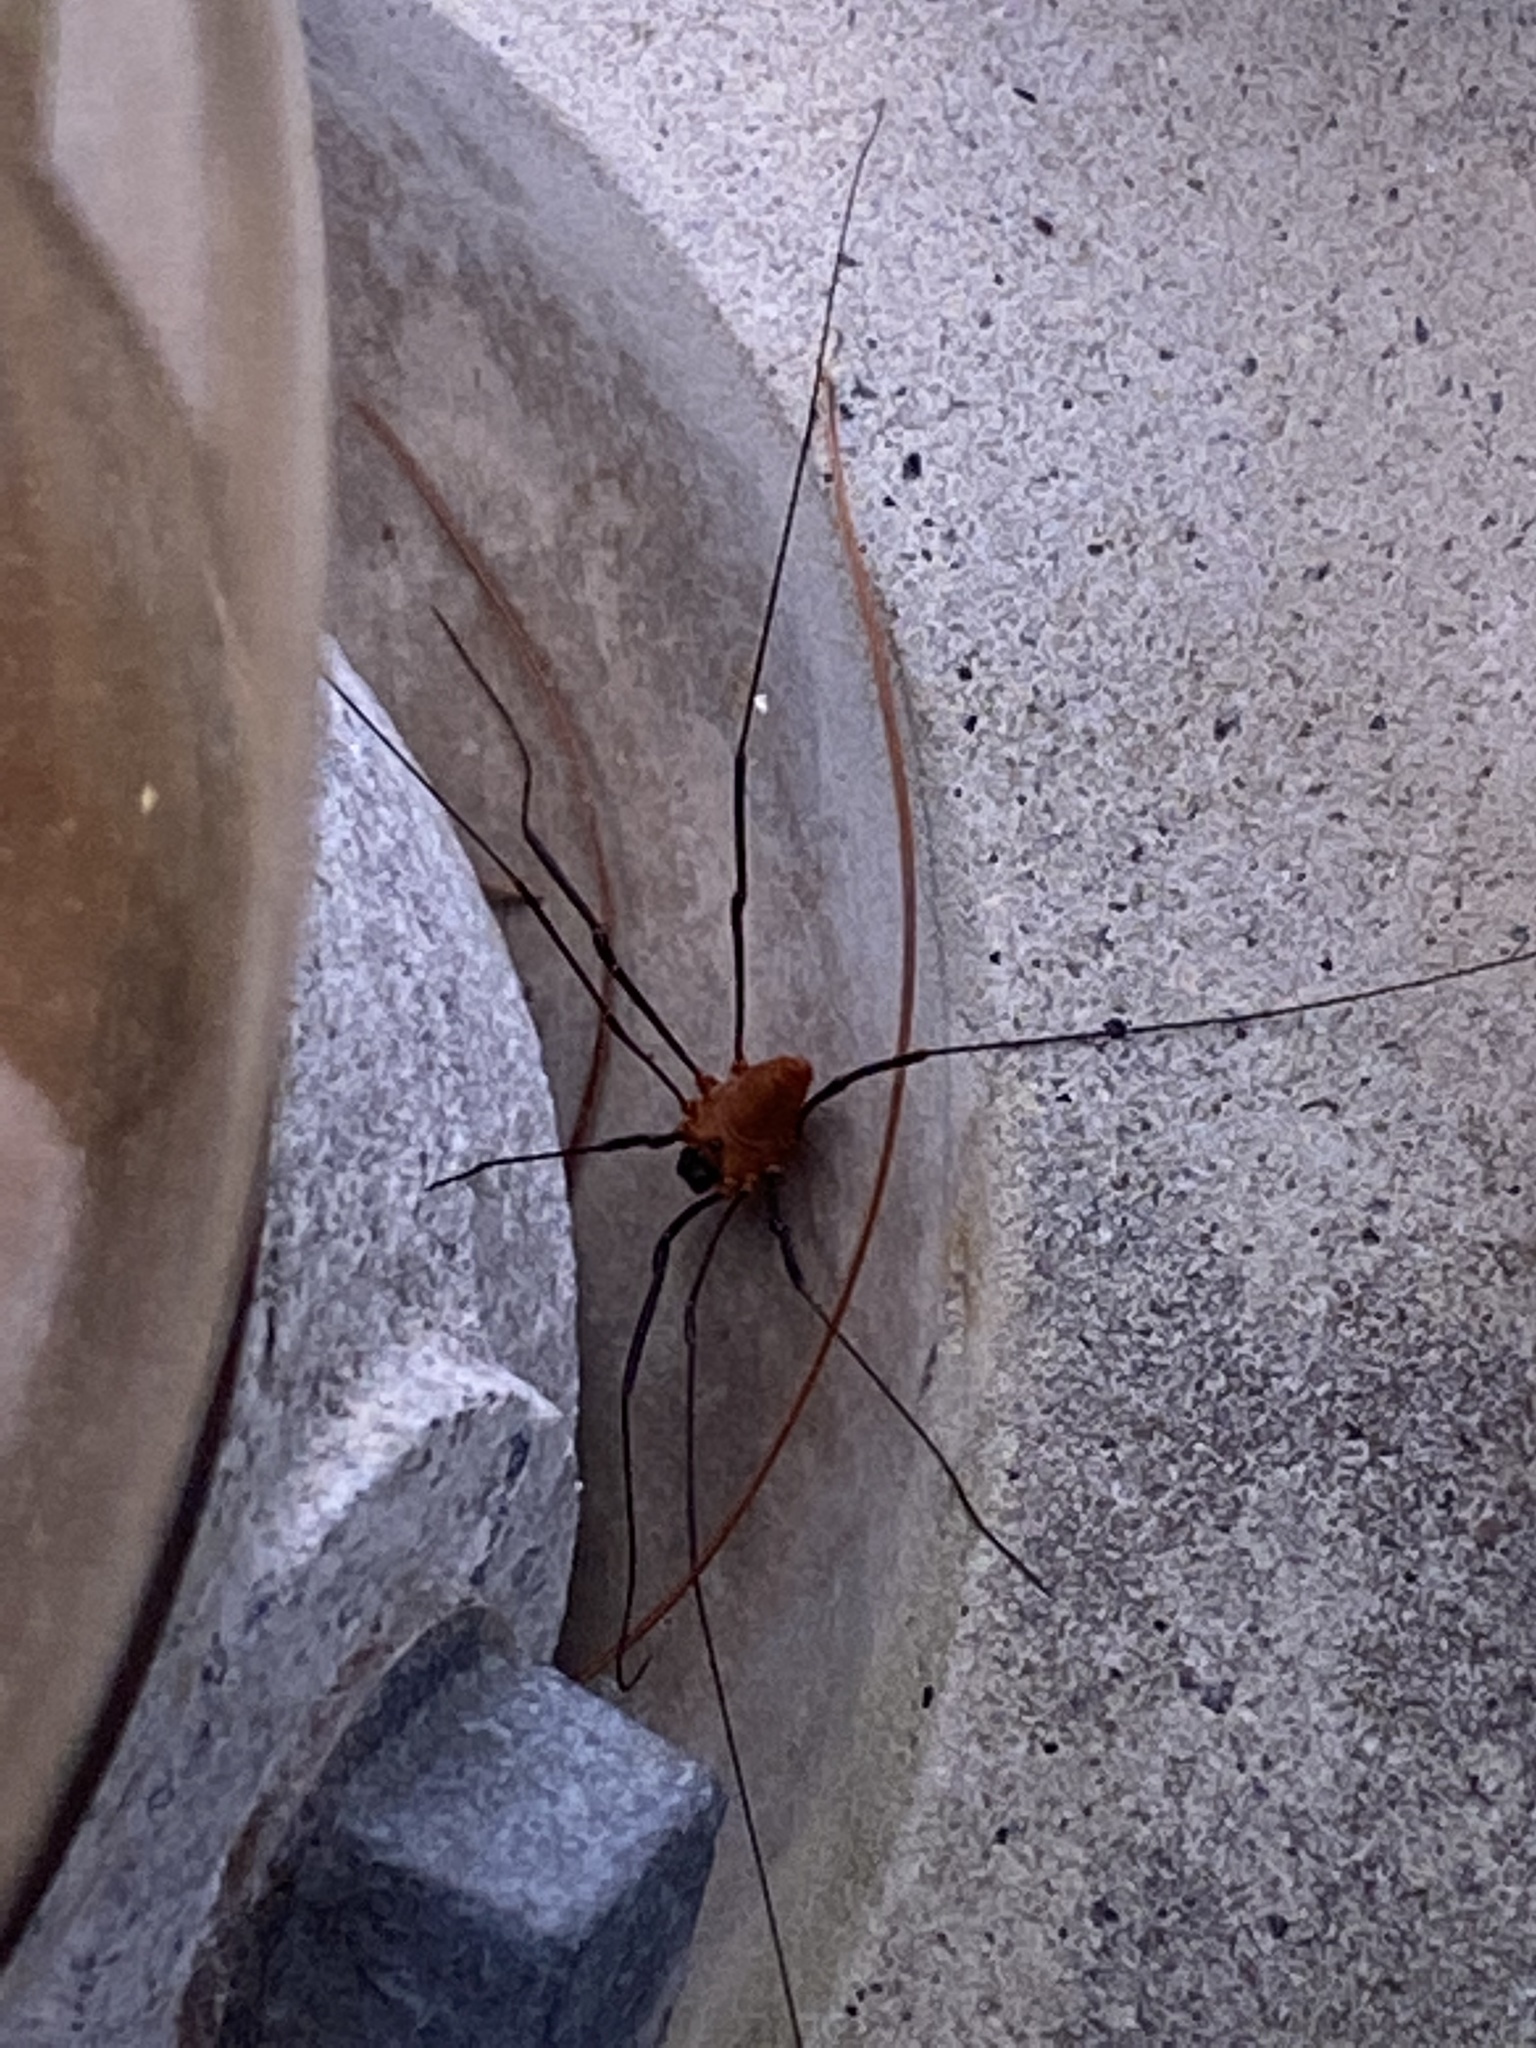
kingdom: Animalia
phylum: Arthropoda
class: Arachnida
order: Opiliones
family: Sclerosomatidae
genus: Leiobunum
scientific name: Leiobunum calcar
